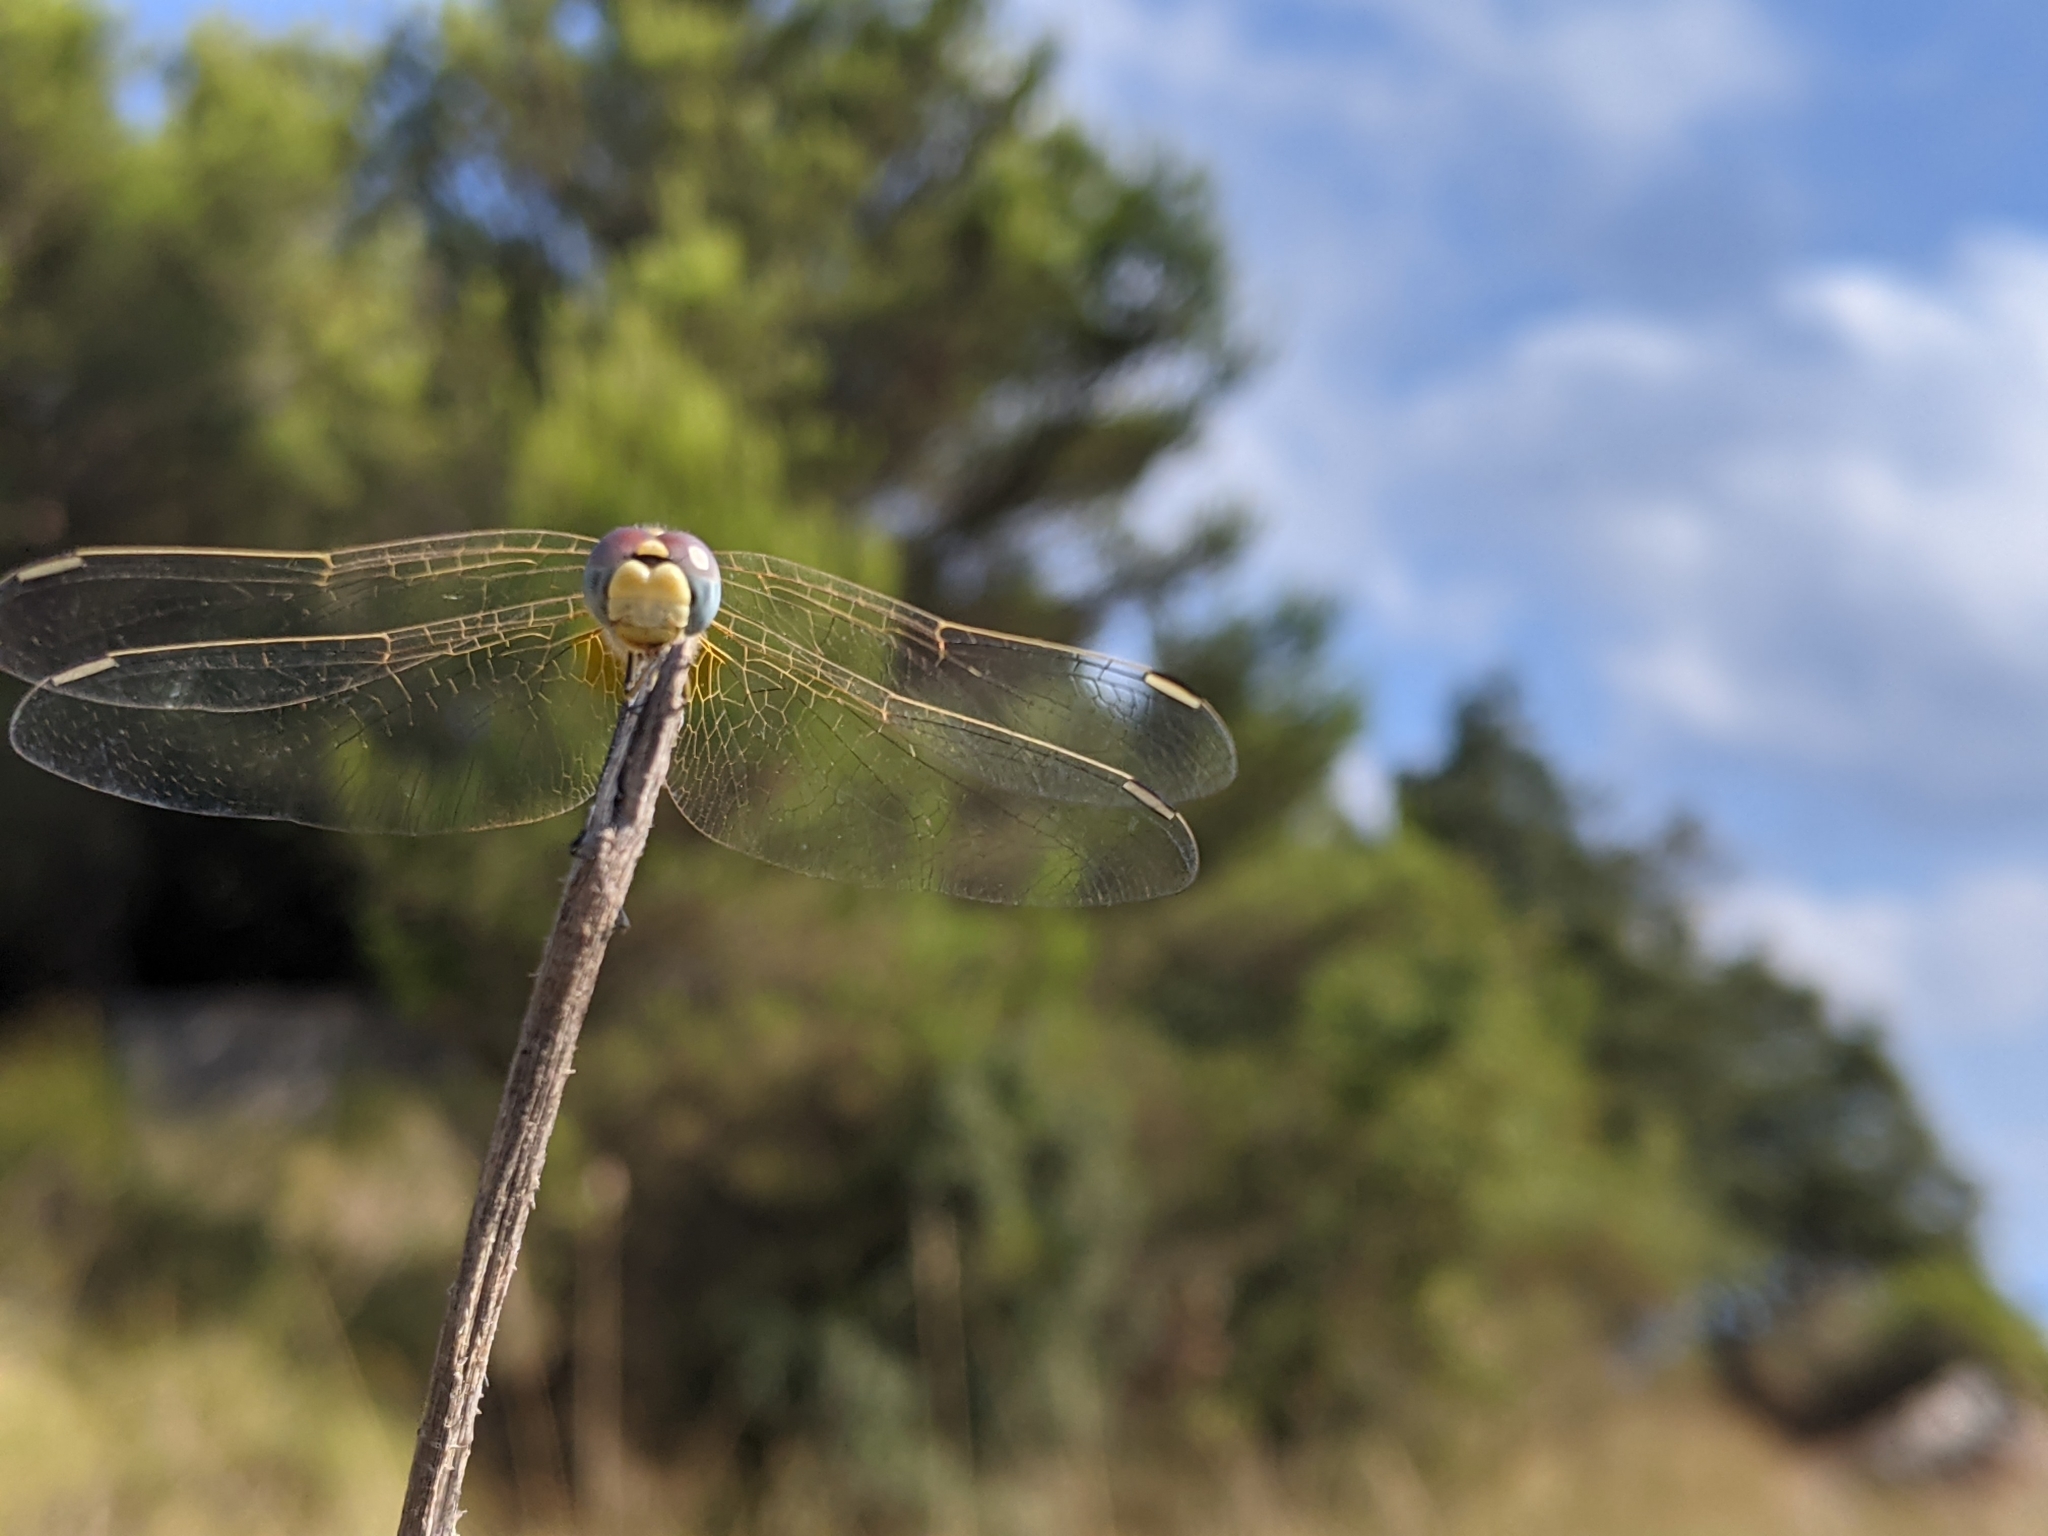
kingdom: Animalia
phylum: Arthropoda
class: Insecta
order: Odonata
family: Libellulidae
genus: Sympetrum
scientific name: Sympetrum fonscolombii
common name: Red-veined darter
